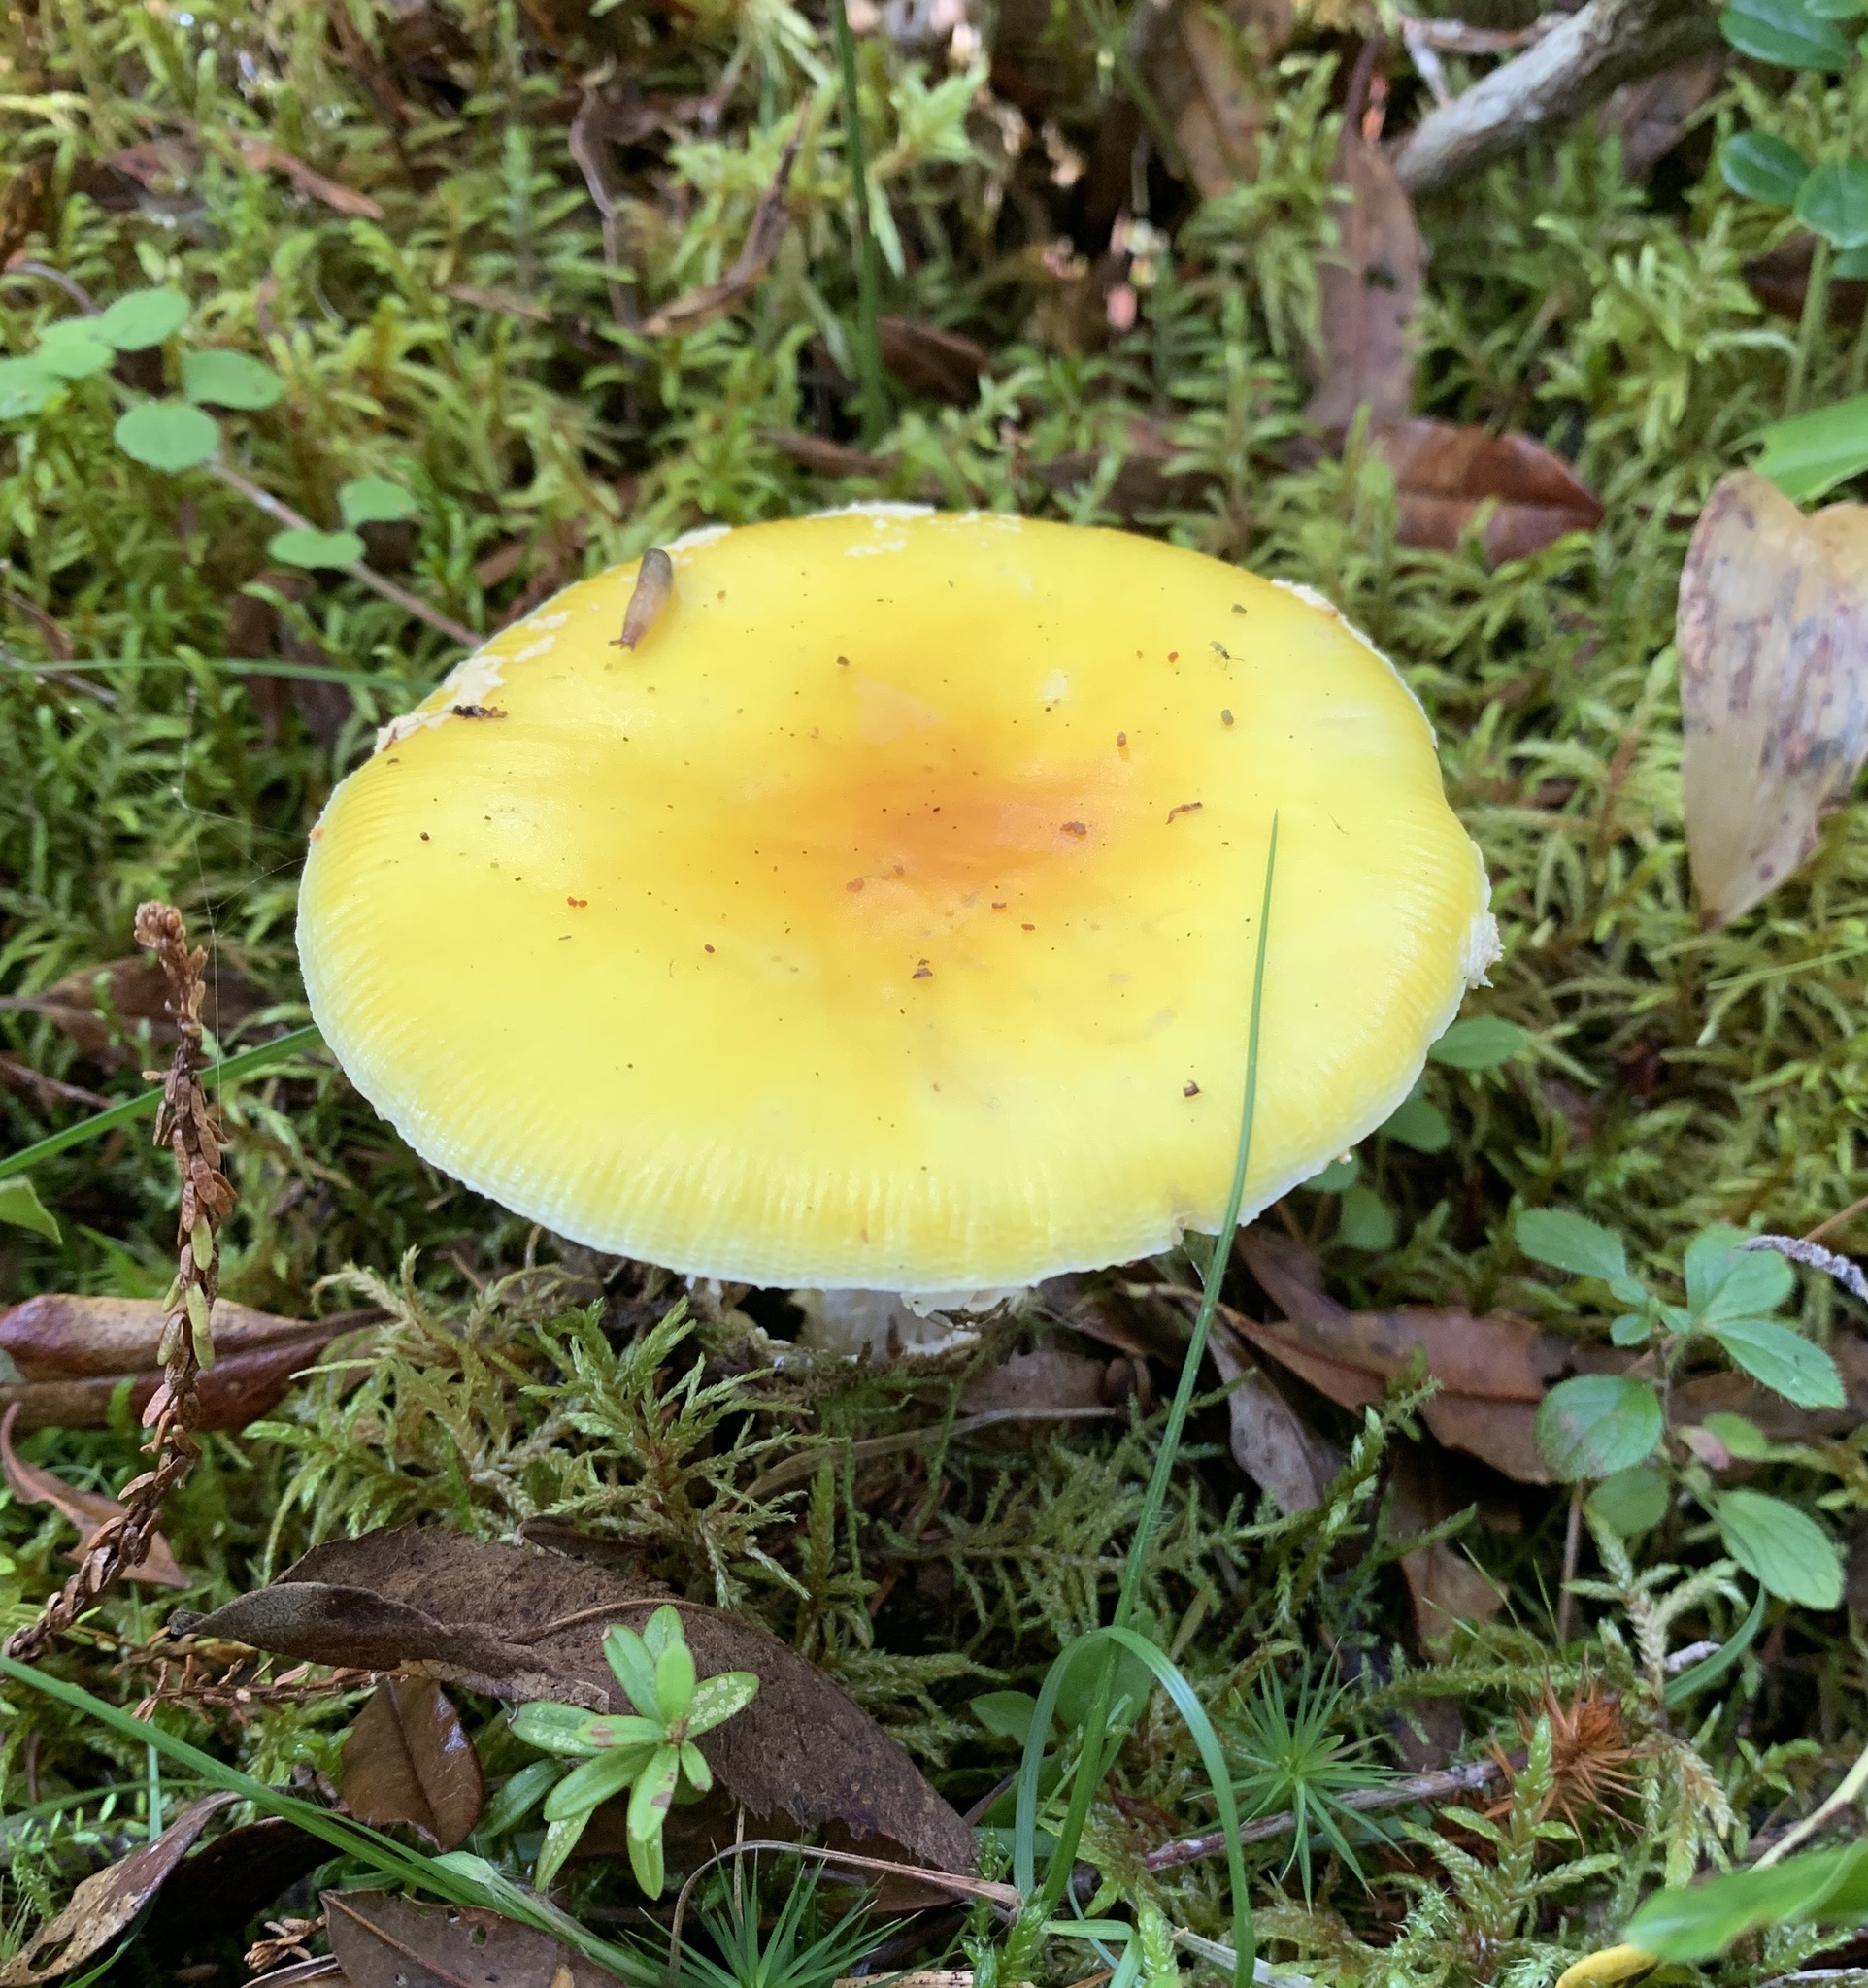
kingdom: Fungi
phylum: Basidiomycota
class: Agaricomycetes
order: Agaricales
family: Amanitaceae
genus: Amanita
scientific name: Amanita muscaria
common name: Fly agaric
